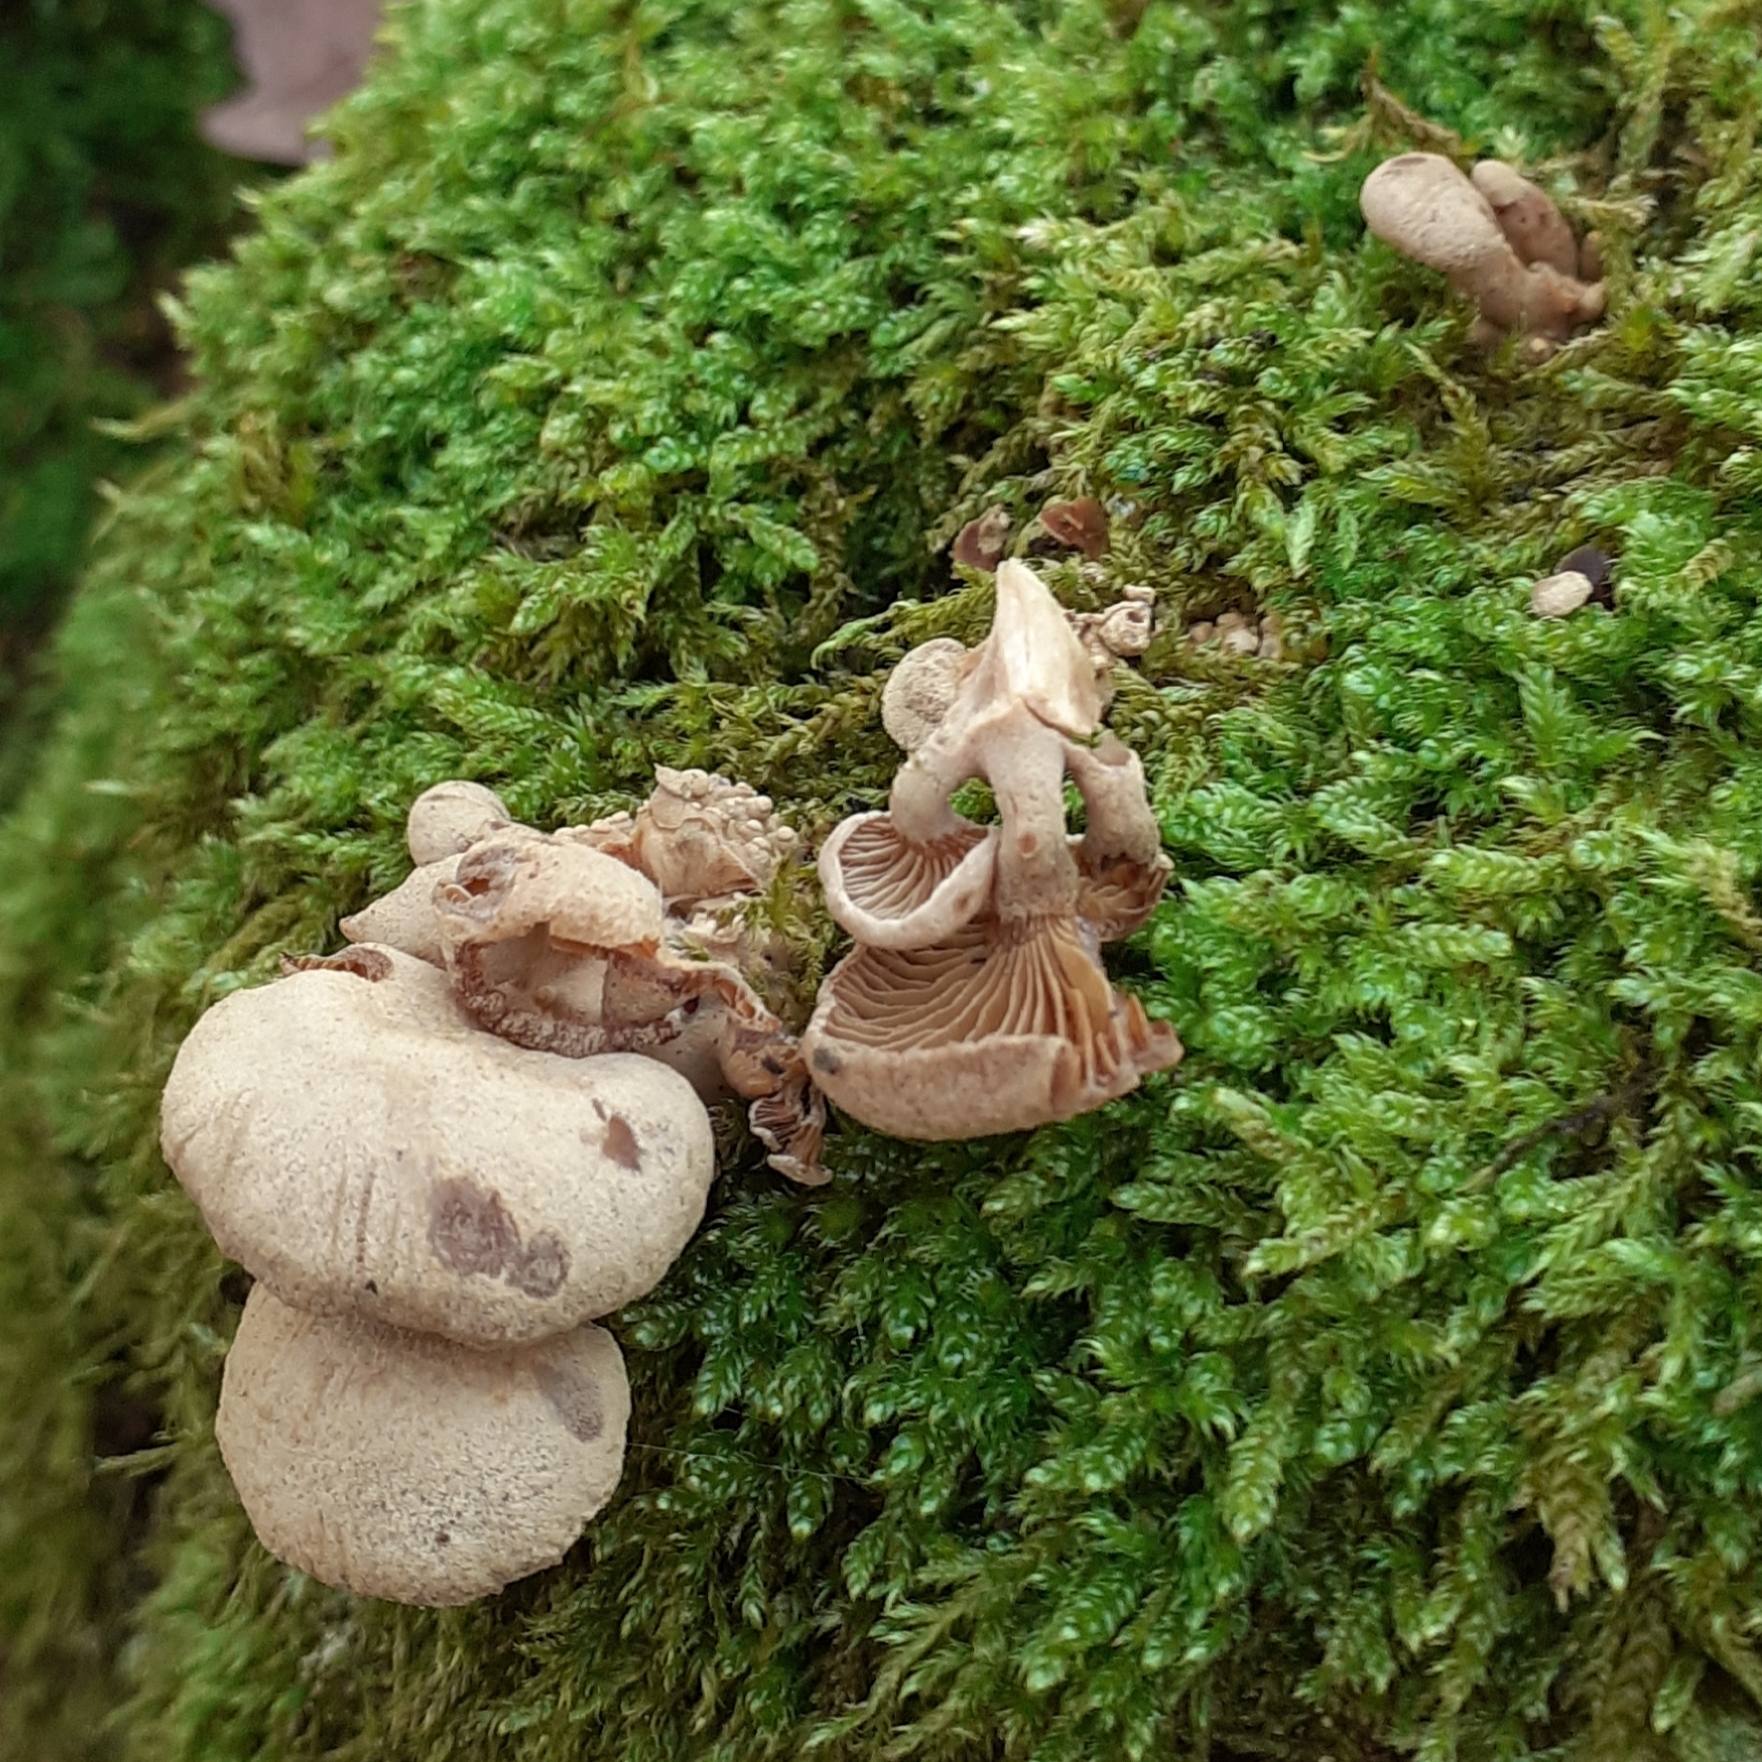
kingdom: Fungi
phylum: Basidiomycota
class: Agaricomycetes
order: Agaricales
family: Mycenaceae
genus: Panellus
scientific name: Panellus stipticus
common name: Bitter oysterling
